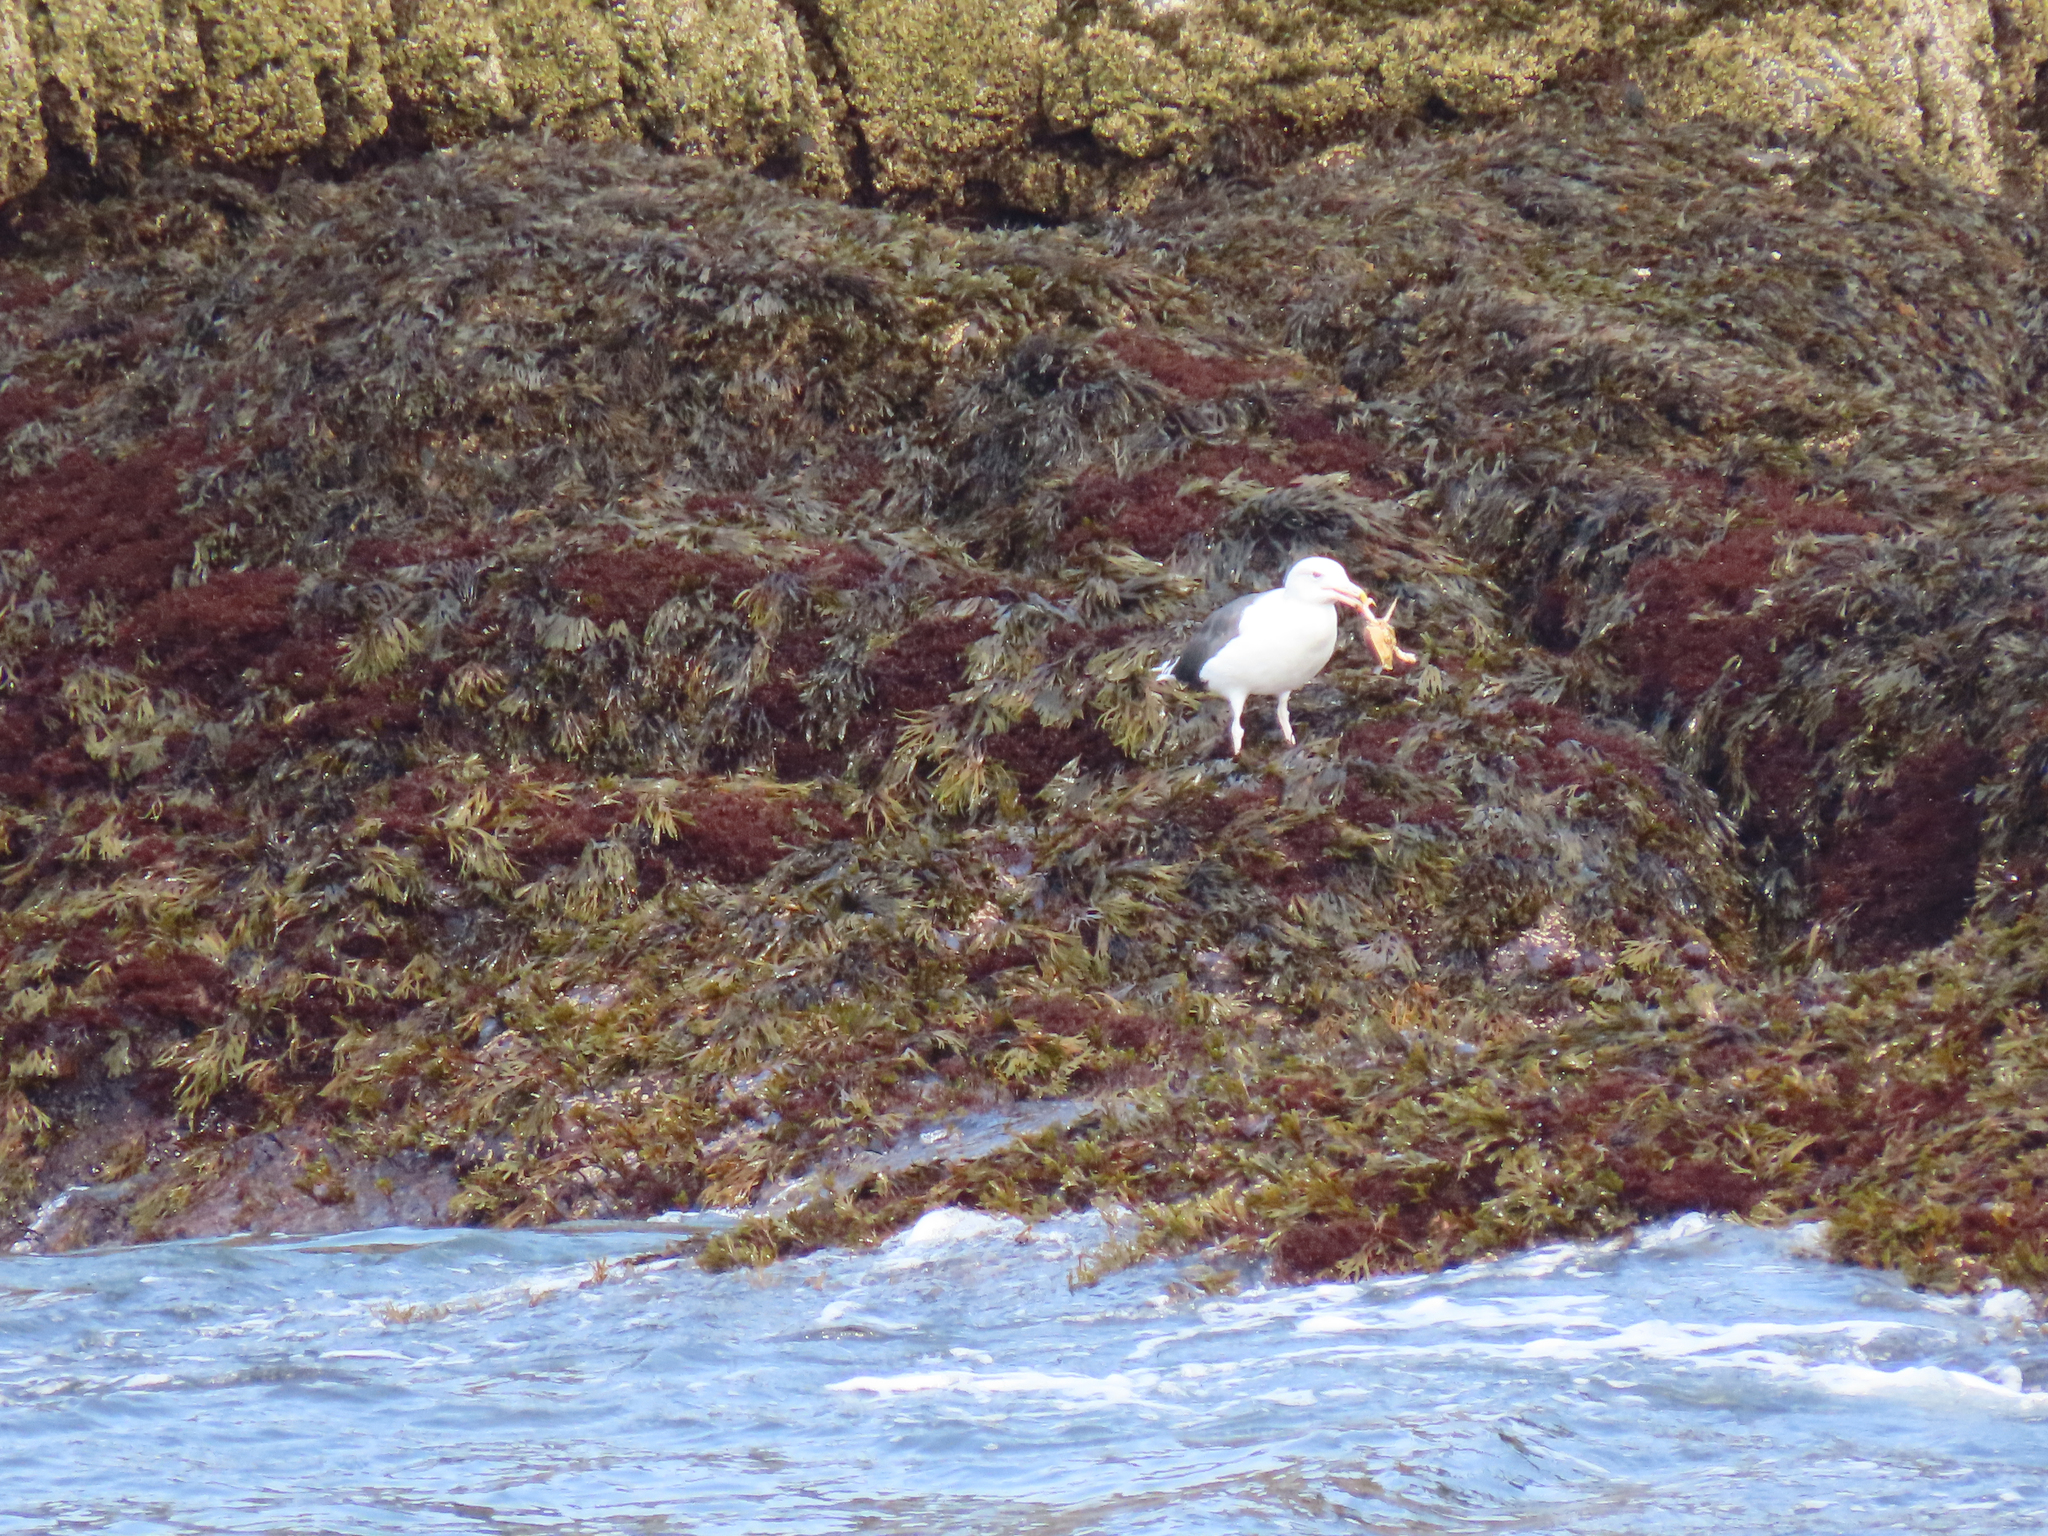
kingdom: Animalia
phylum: Chordata
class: Aves
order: Charadriiformes
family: Laridae
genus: Larus
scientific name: Larus marinus
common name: Great black-backed gull
